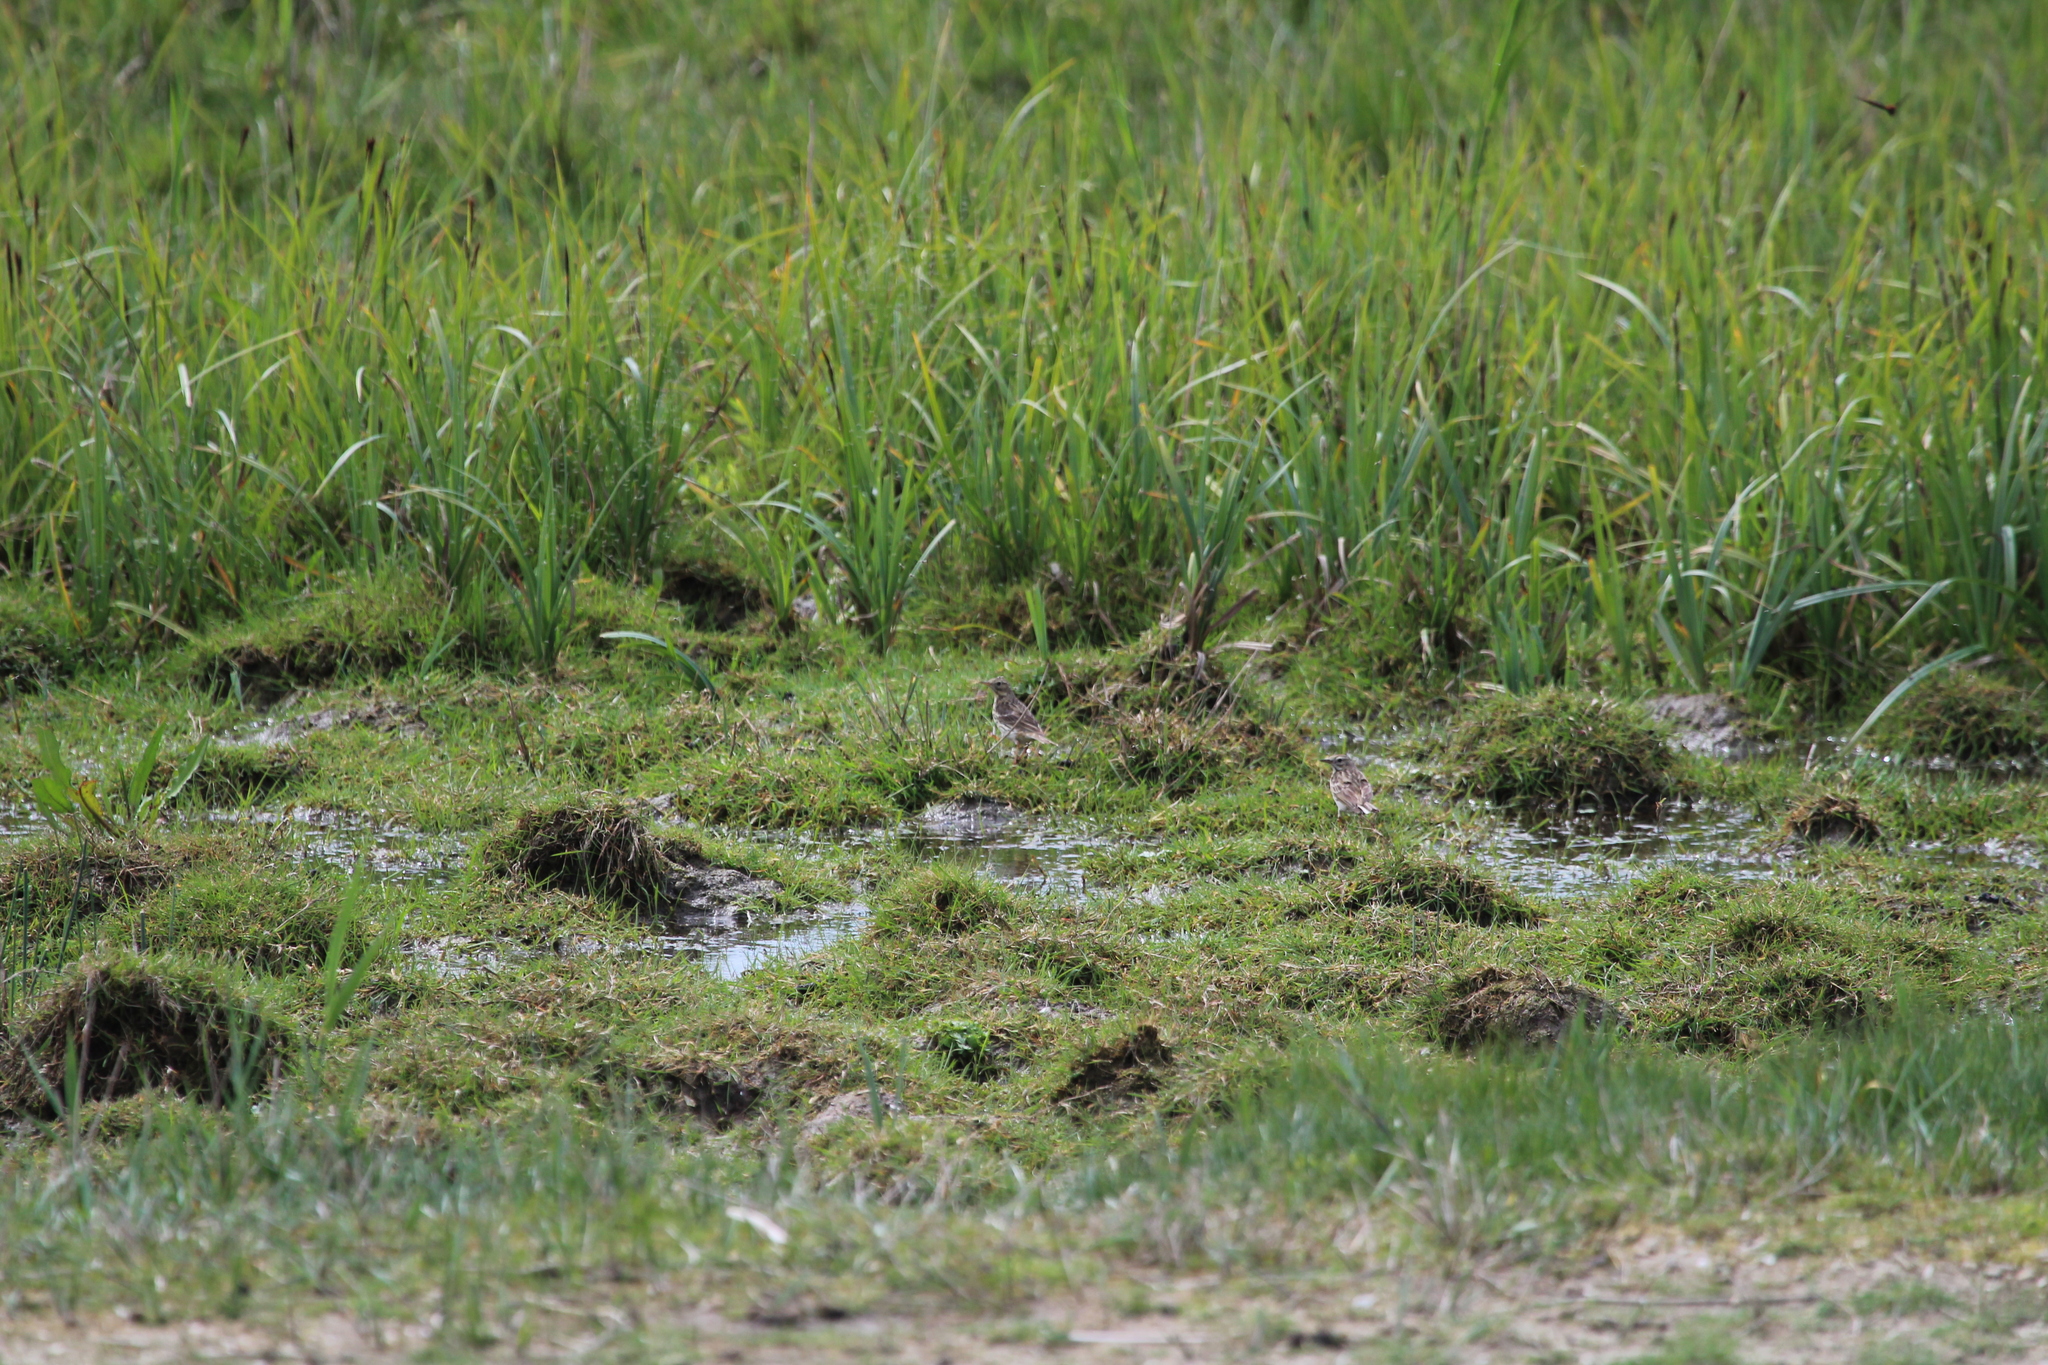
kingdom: Animalia
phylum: Chordata
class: Aves
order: Passeriformes
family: Motacillidae
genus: Anthus
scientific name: Anthus pratensis
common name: Meadow pipit
